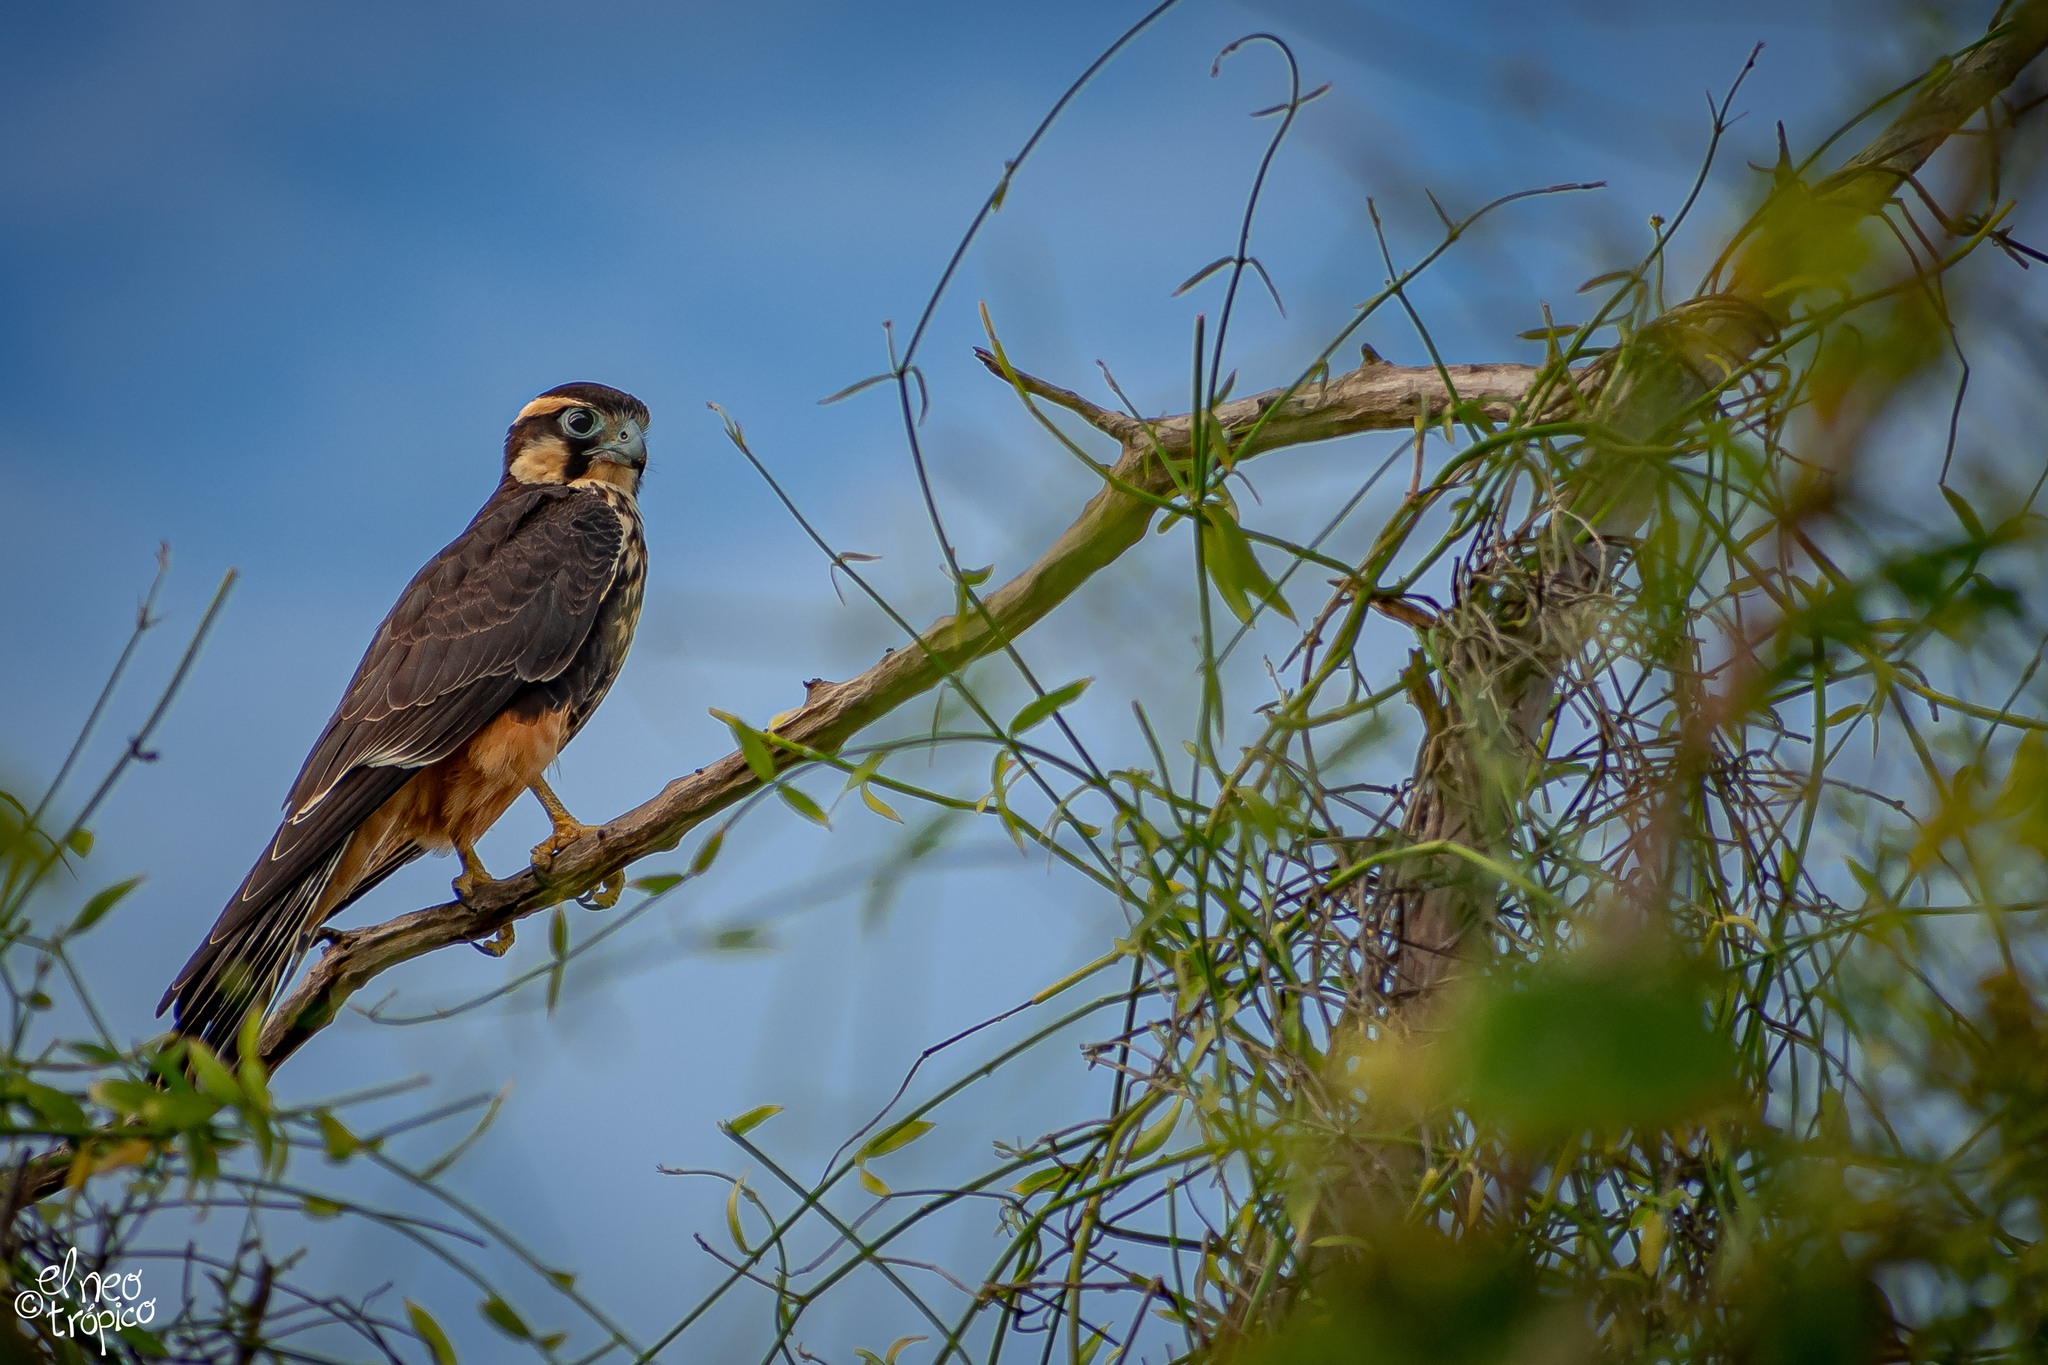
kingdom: Animalia
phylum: Chordata
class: Aves
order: Falconiformes
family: Falconidae
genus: Falco
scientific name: Falco femoralis
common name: Aplomado falcon
